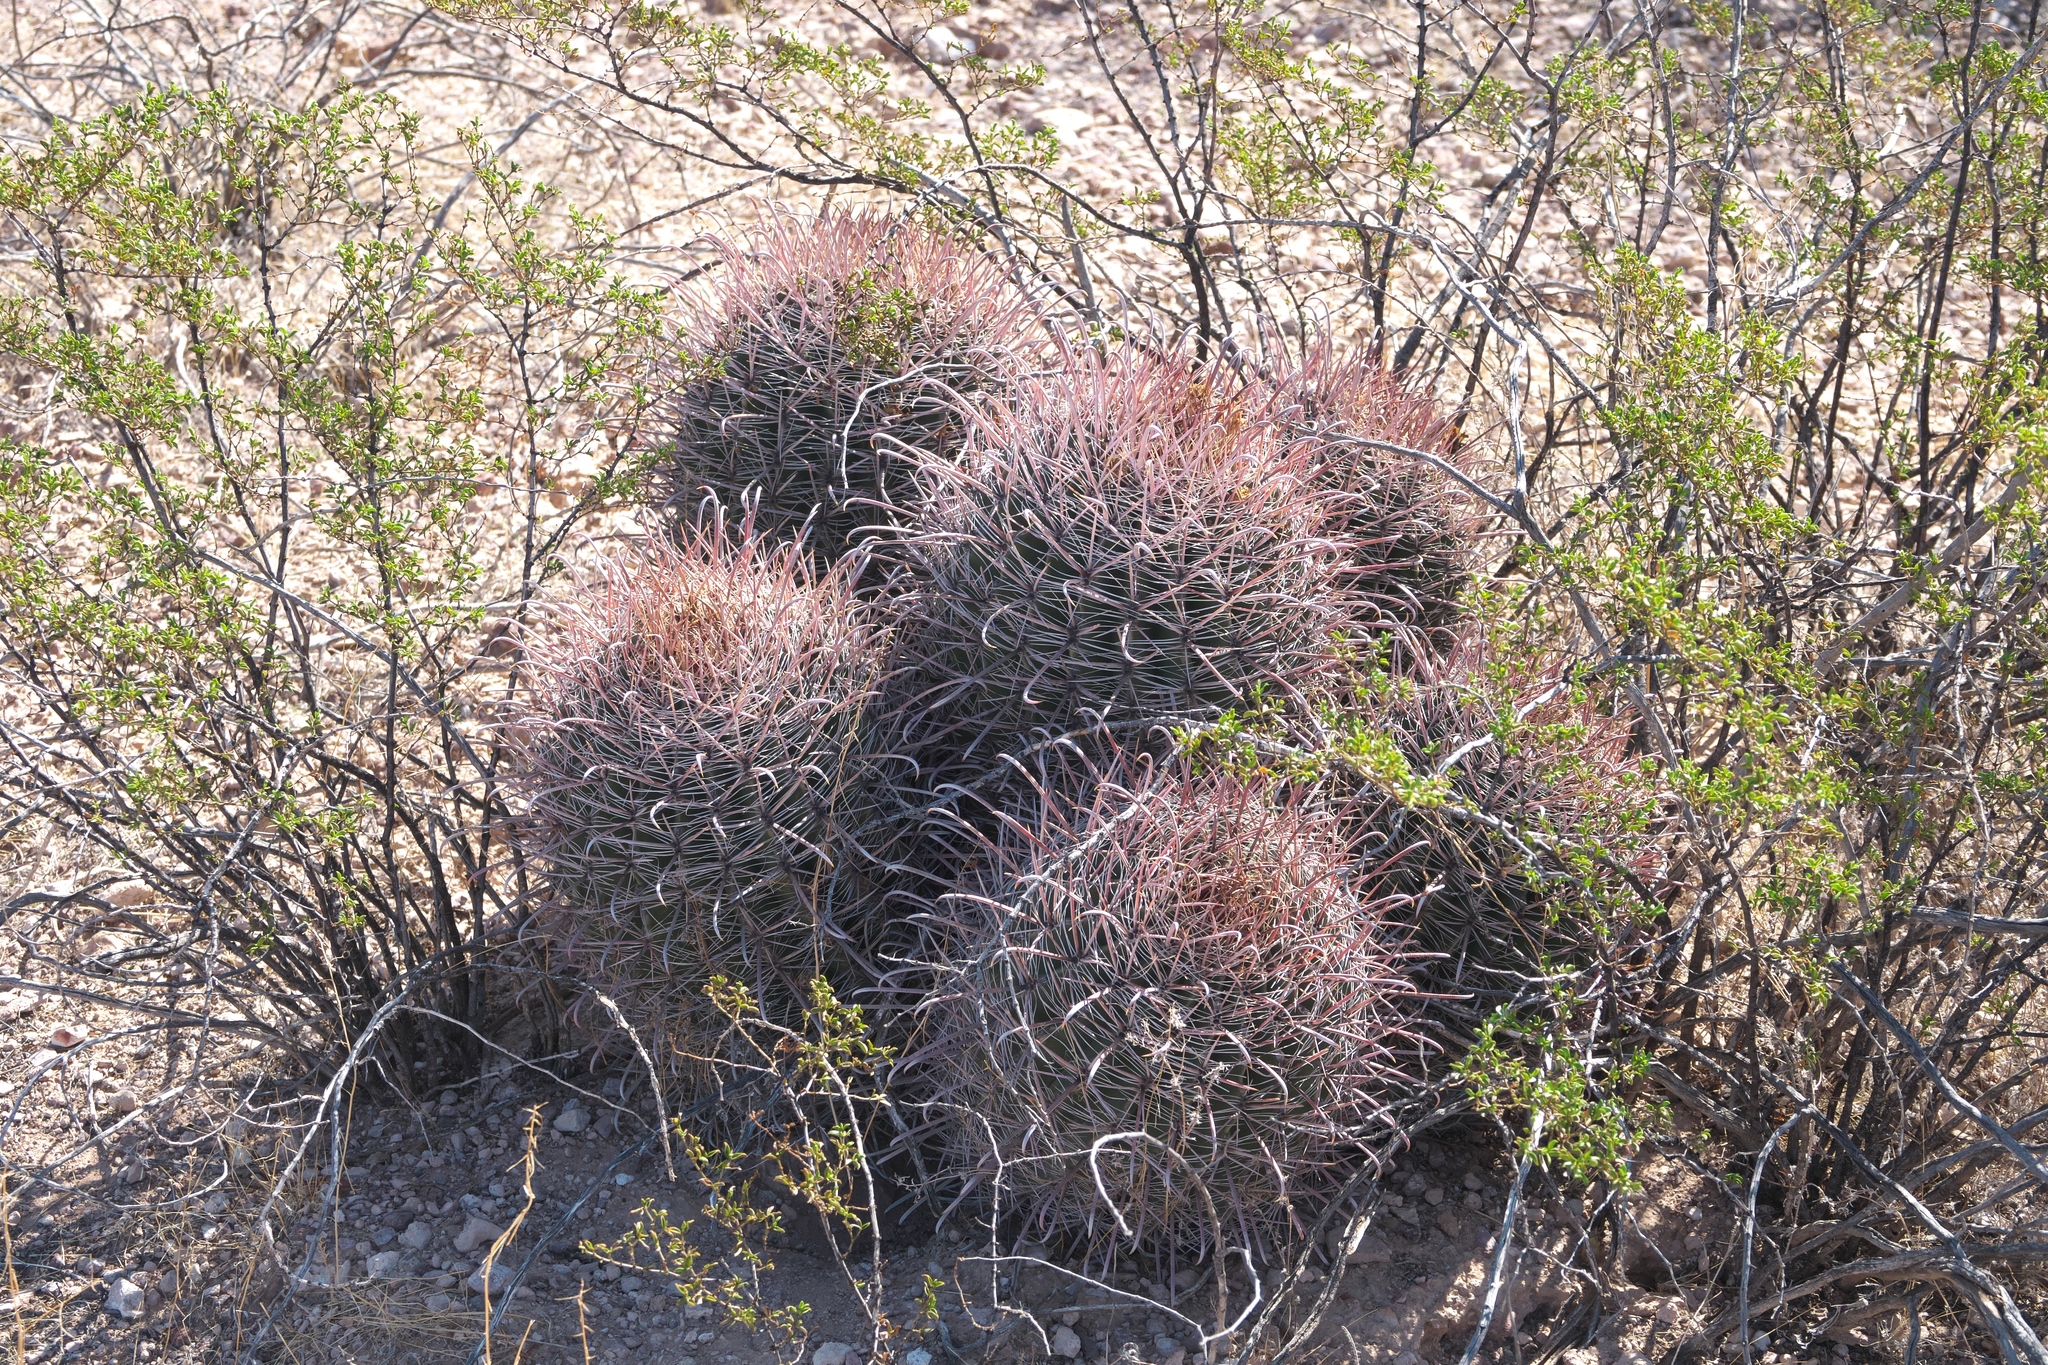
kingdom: Plantae
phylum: Tracheophyta
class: Magnoliopsida
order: Caryophyllales
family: Cactaceae
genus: Ferocactus
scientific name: Ferocactus wislizeni
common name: Candy barrel cactus
